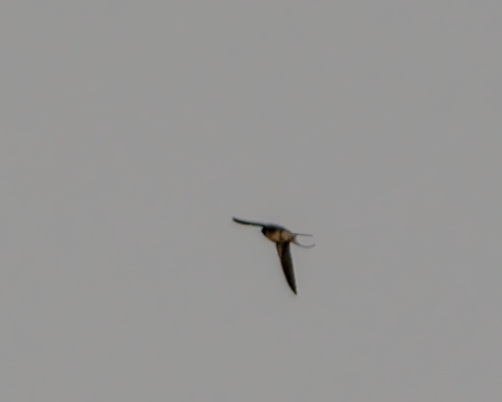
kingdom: Animalia
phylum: Chordata
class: Aves
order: Passeriformes
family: Hirundinidae
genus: Hirundo
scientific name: Hirundo rustica
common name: Barn swallow
